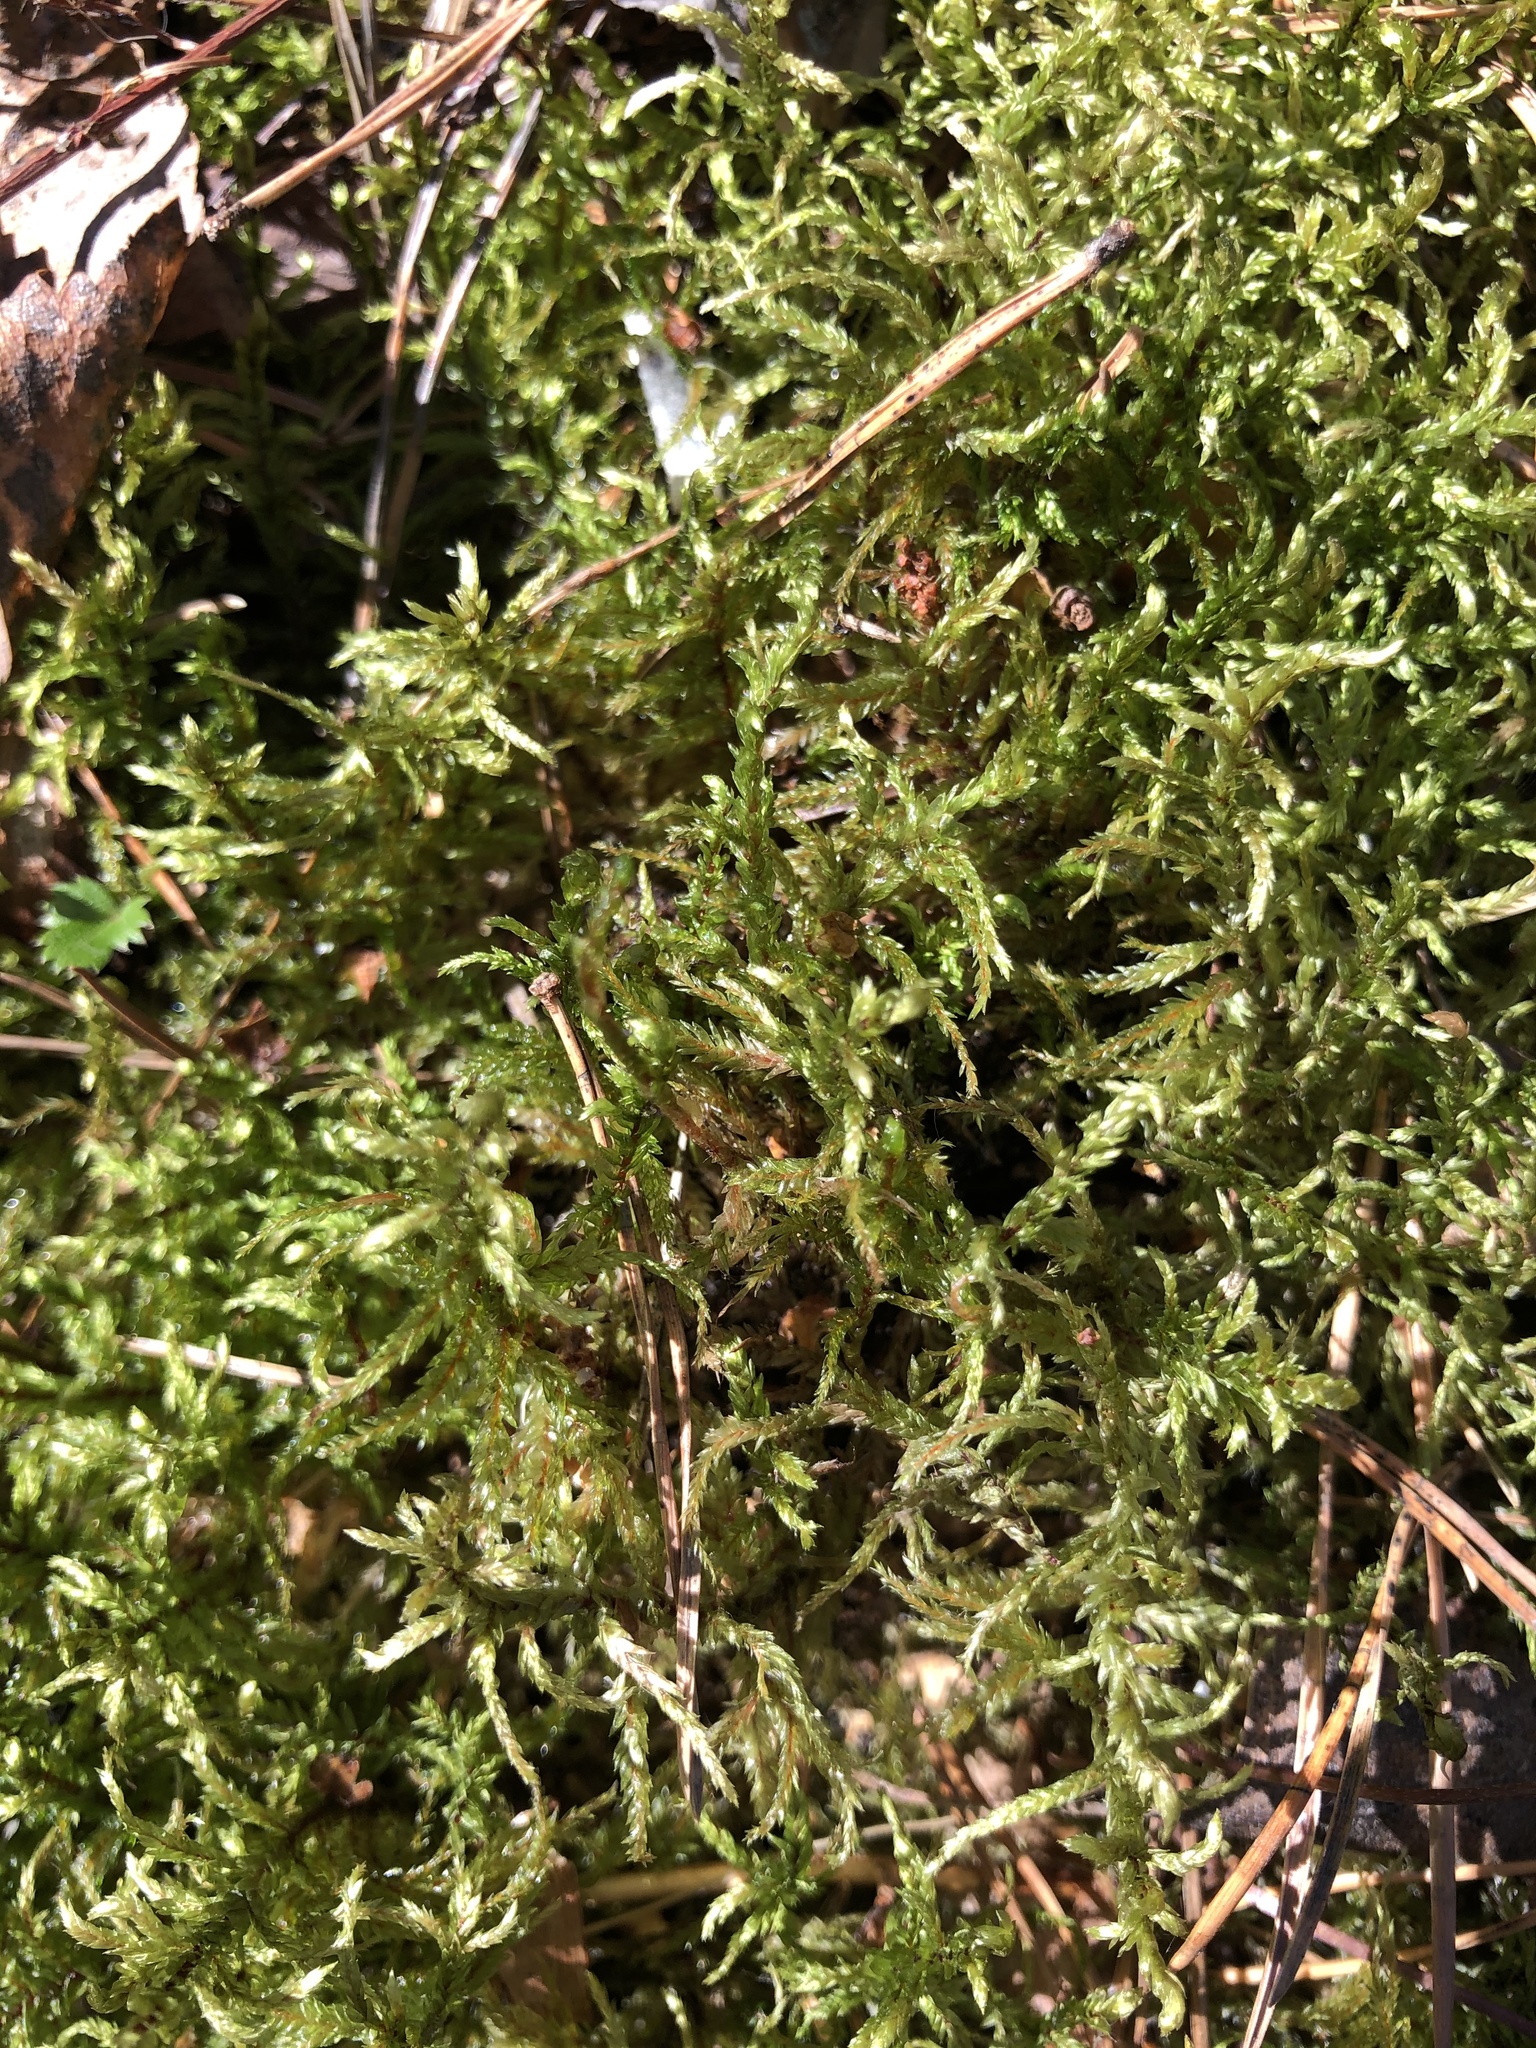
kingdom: Plantae
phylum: Bryophyta
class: Bryopsida
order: Hypnales
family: Hylocomiaceae
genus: Pleurozium
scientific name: Pleurozium schreberi
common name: Red-stemmed feather moss
